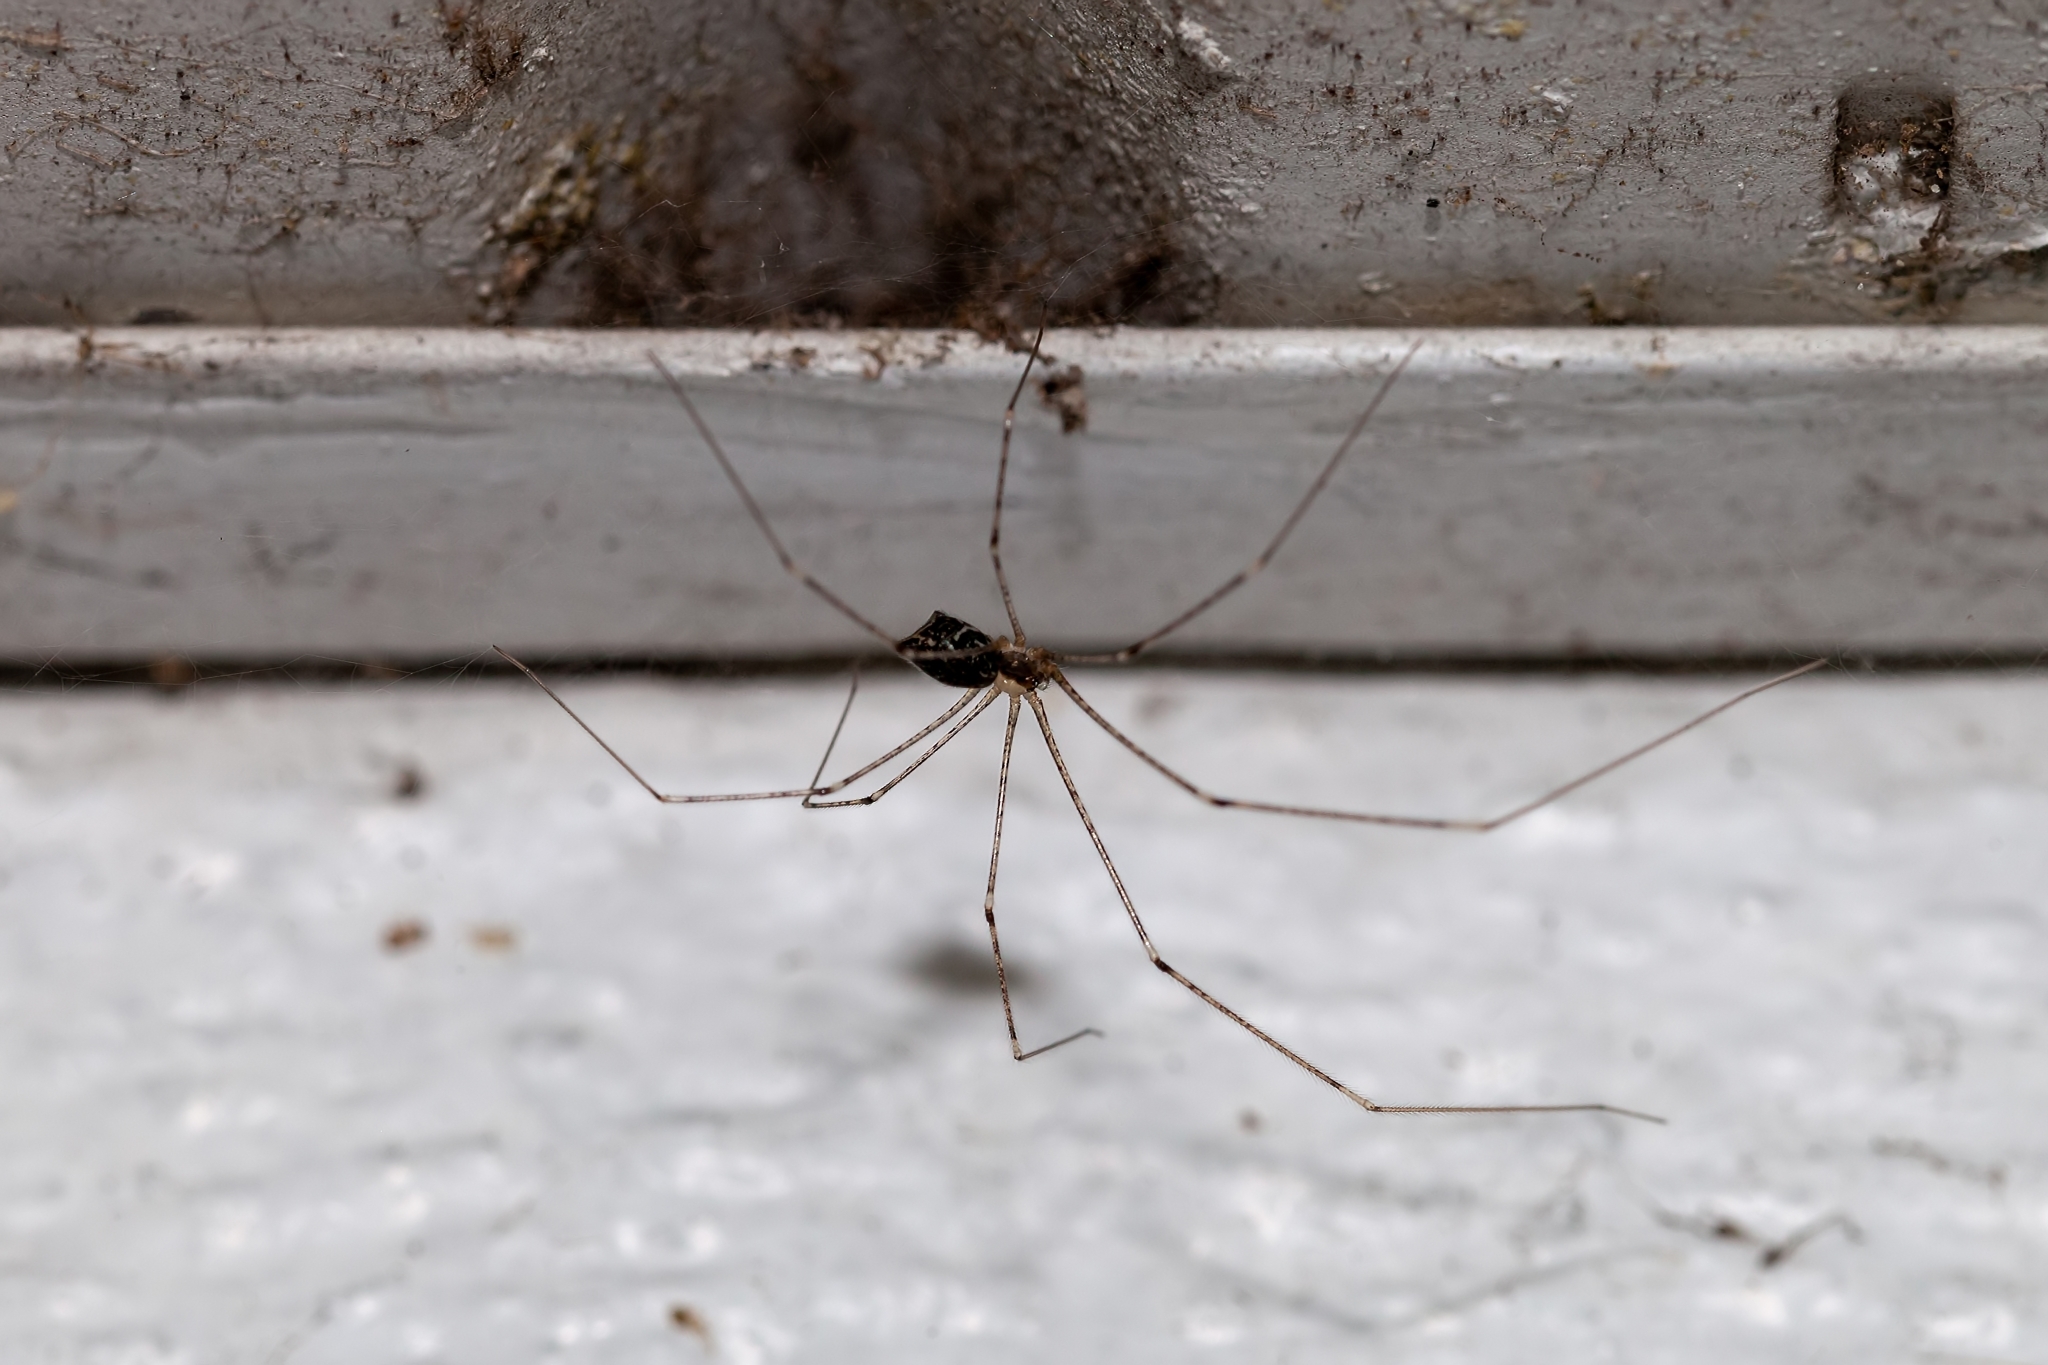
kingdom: Animalia
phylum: Arthropoda
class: Arachnida
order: Araneae
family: Pholcidae
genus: Crossopriza
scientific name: Crossopriza lyoni
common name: Cellar spiders
